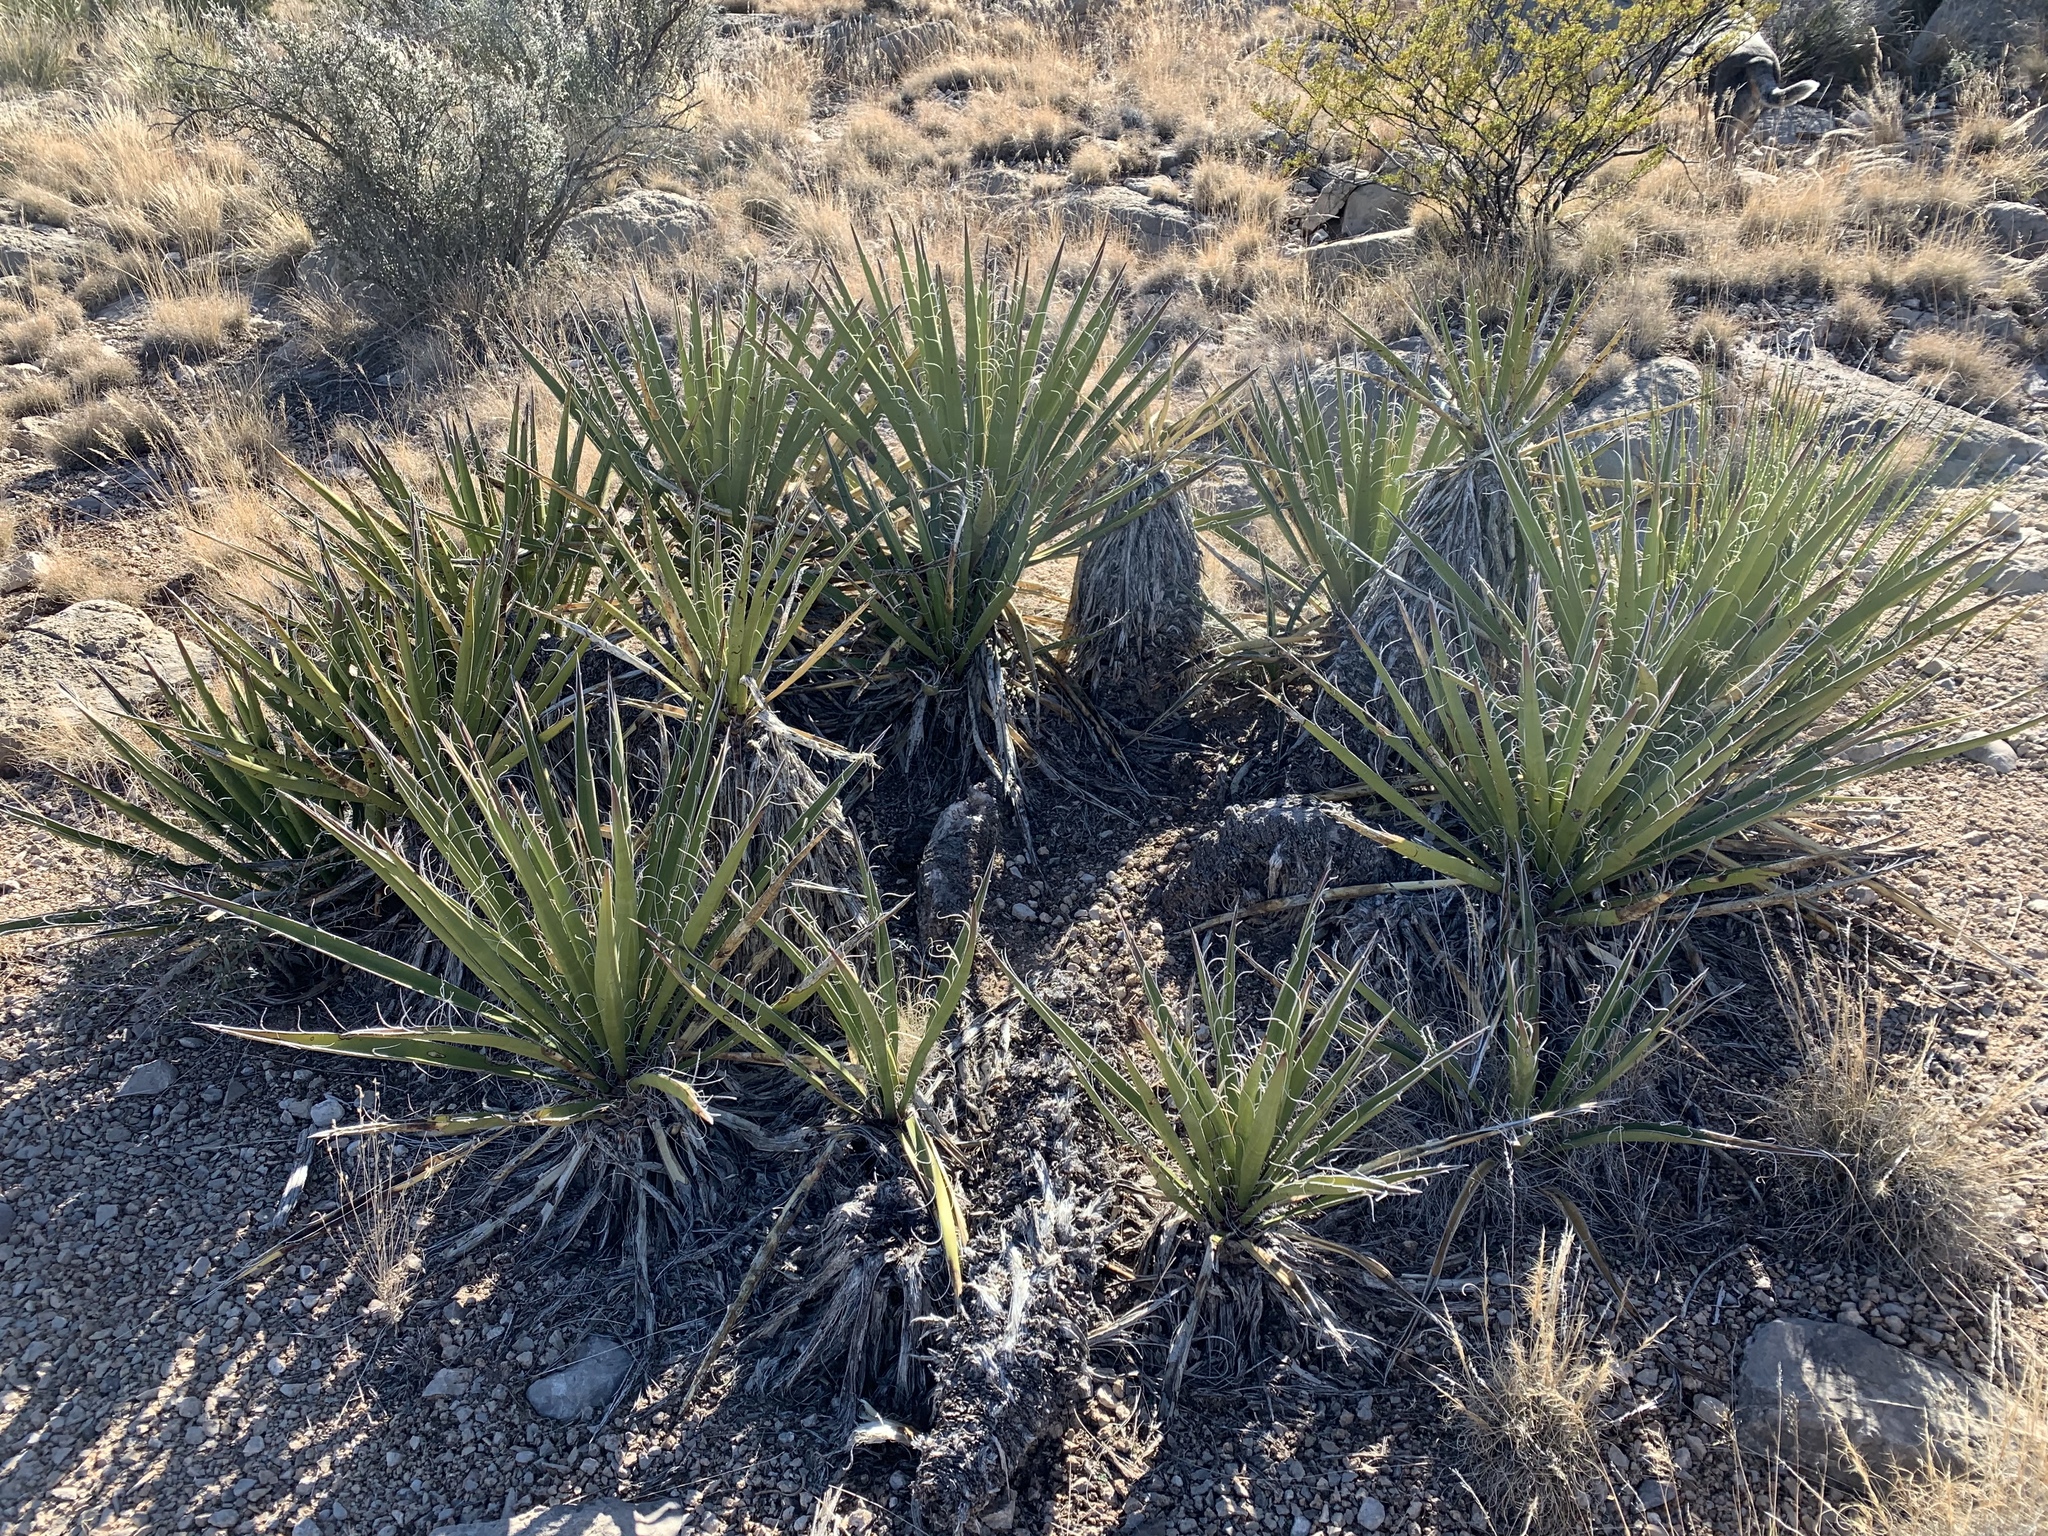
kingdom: Plantae
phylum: Tracheophyta
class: Liliopsida
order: Asparagales
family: Asparagaceae
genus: Yucca
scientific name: Yucca baccata
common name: Banana yucca
